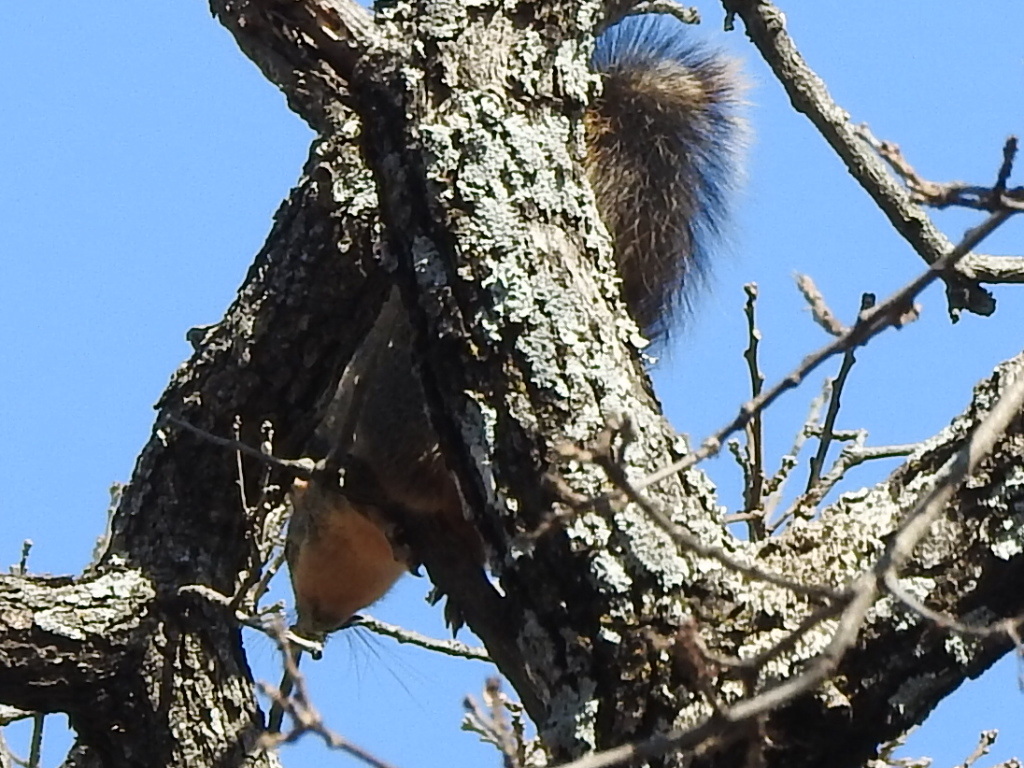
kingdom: Animalia
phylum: Chordata
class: Mammalia
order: Rodentia
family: Sciuridae
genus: Sciurus
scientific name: Sciurus niger
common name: Fox squirrel
